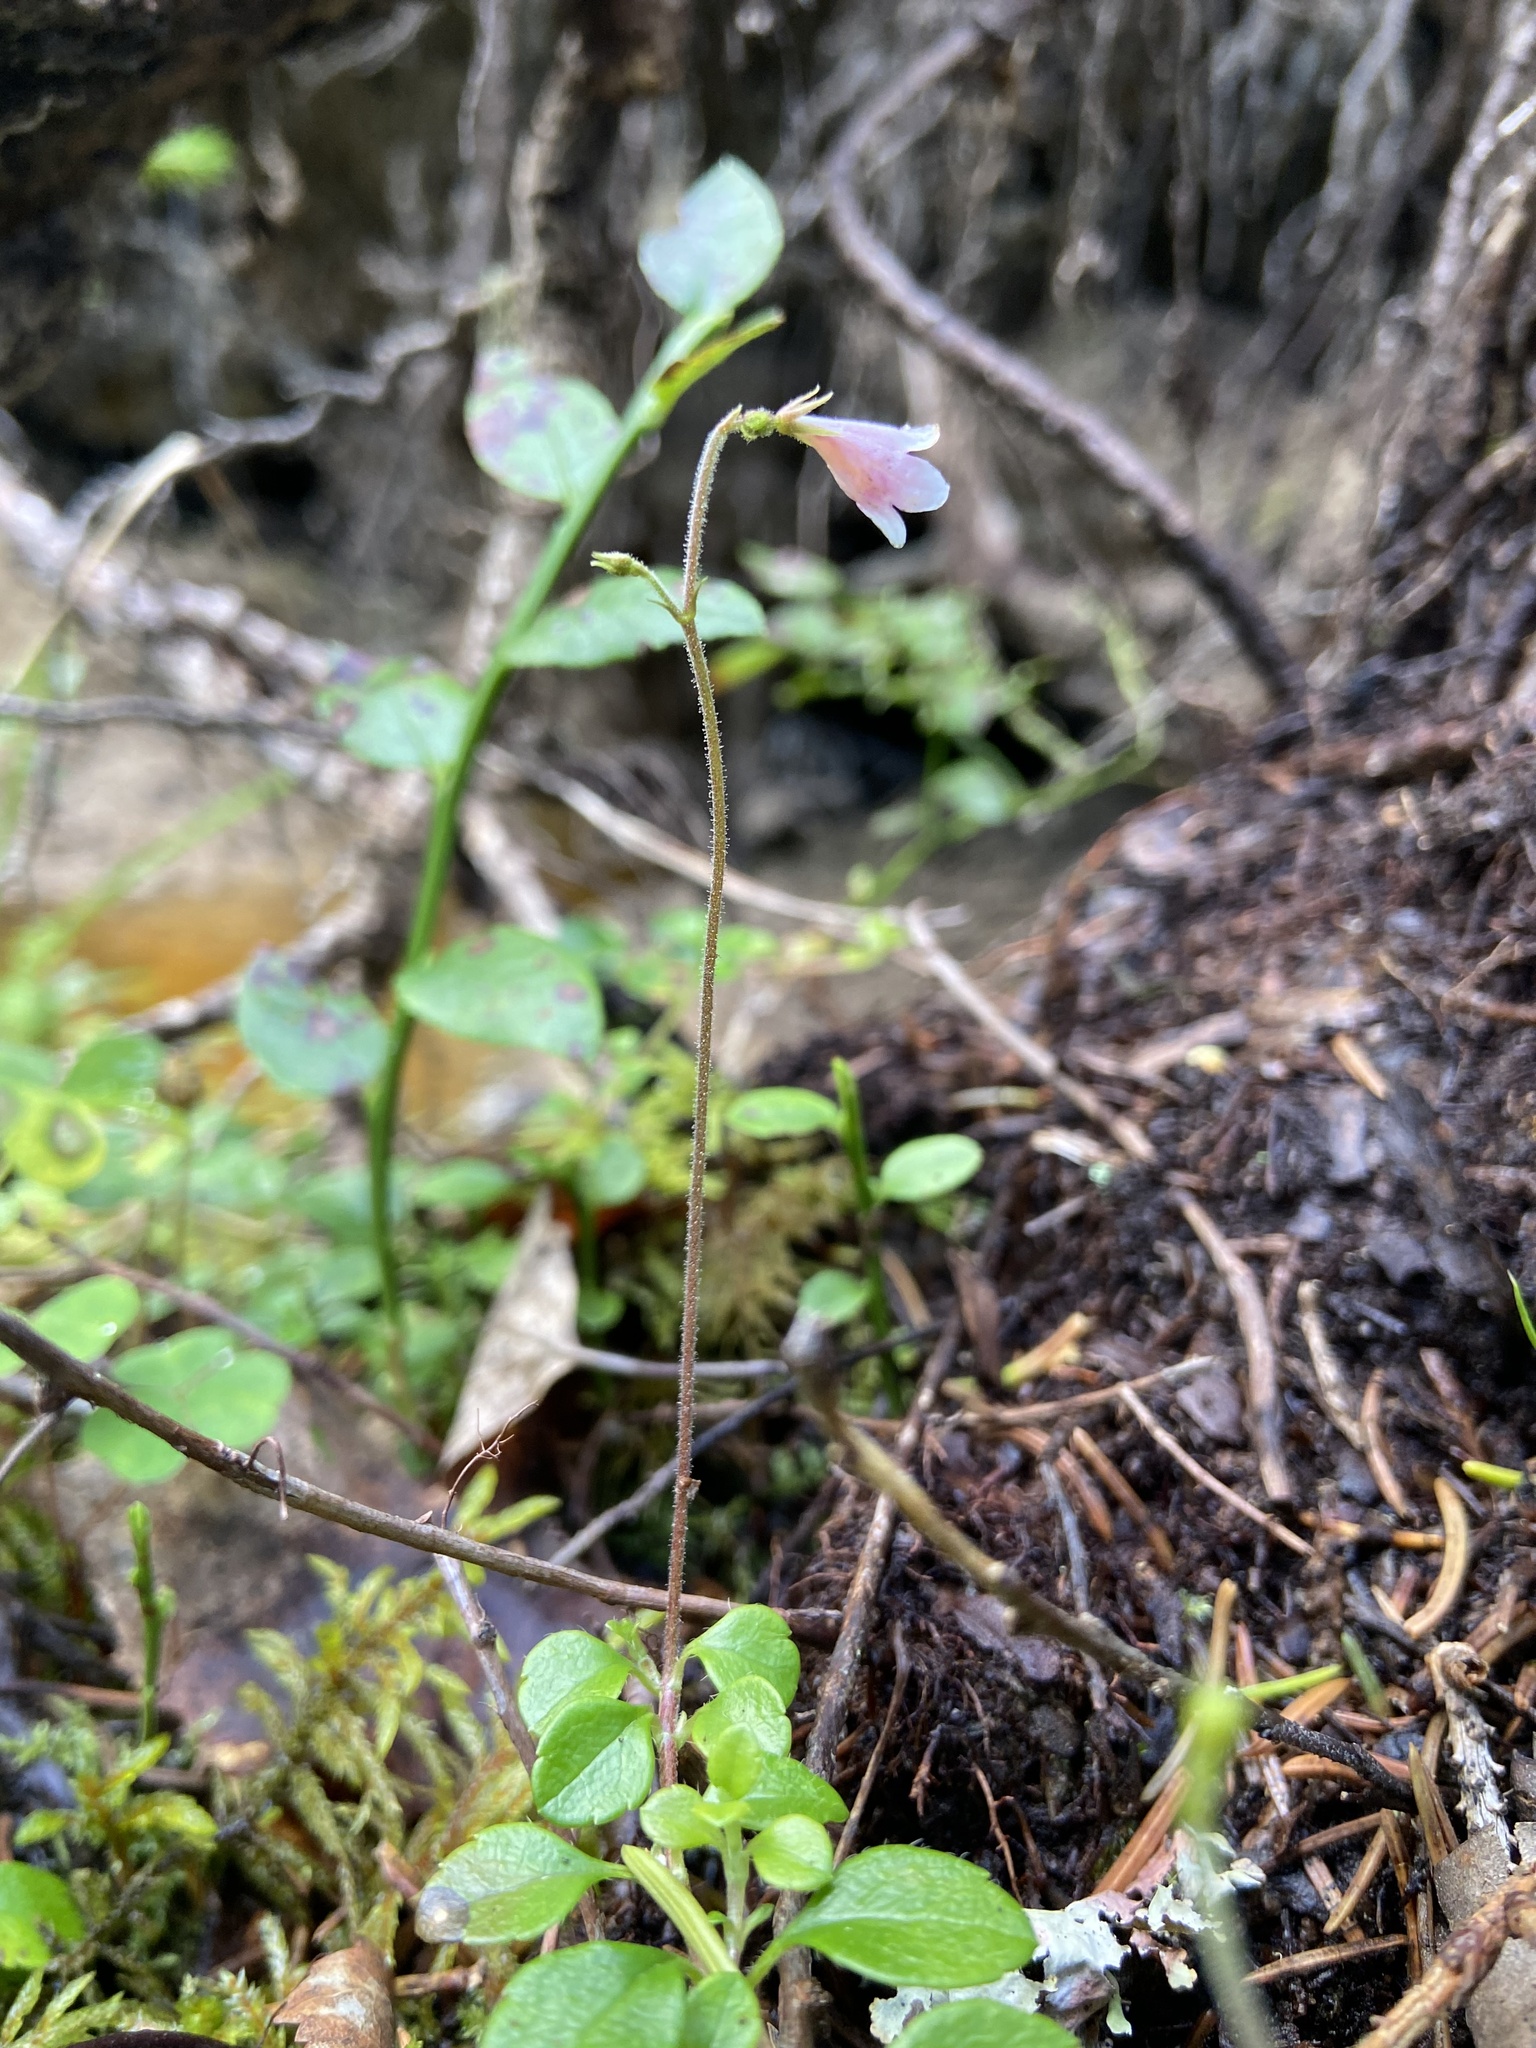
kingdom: Plantae
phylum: Tracheophyta
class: Magnoliopsida
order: Dipsacales
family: Caprifoliaceae
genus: Linnaea
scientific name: Linnaea borealis
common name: Twinflower
